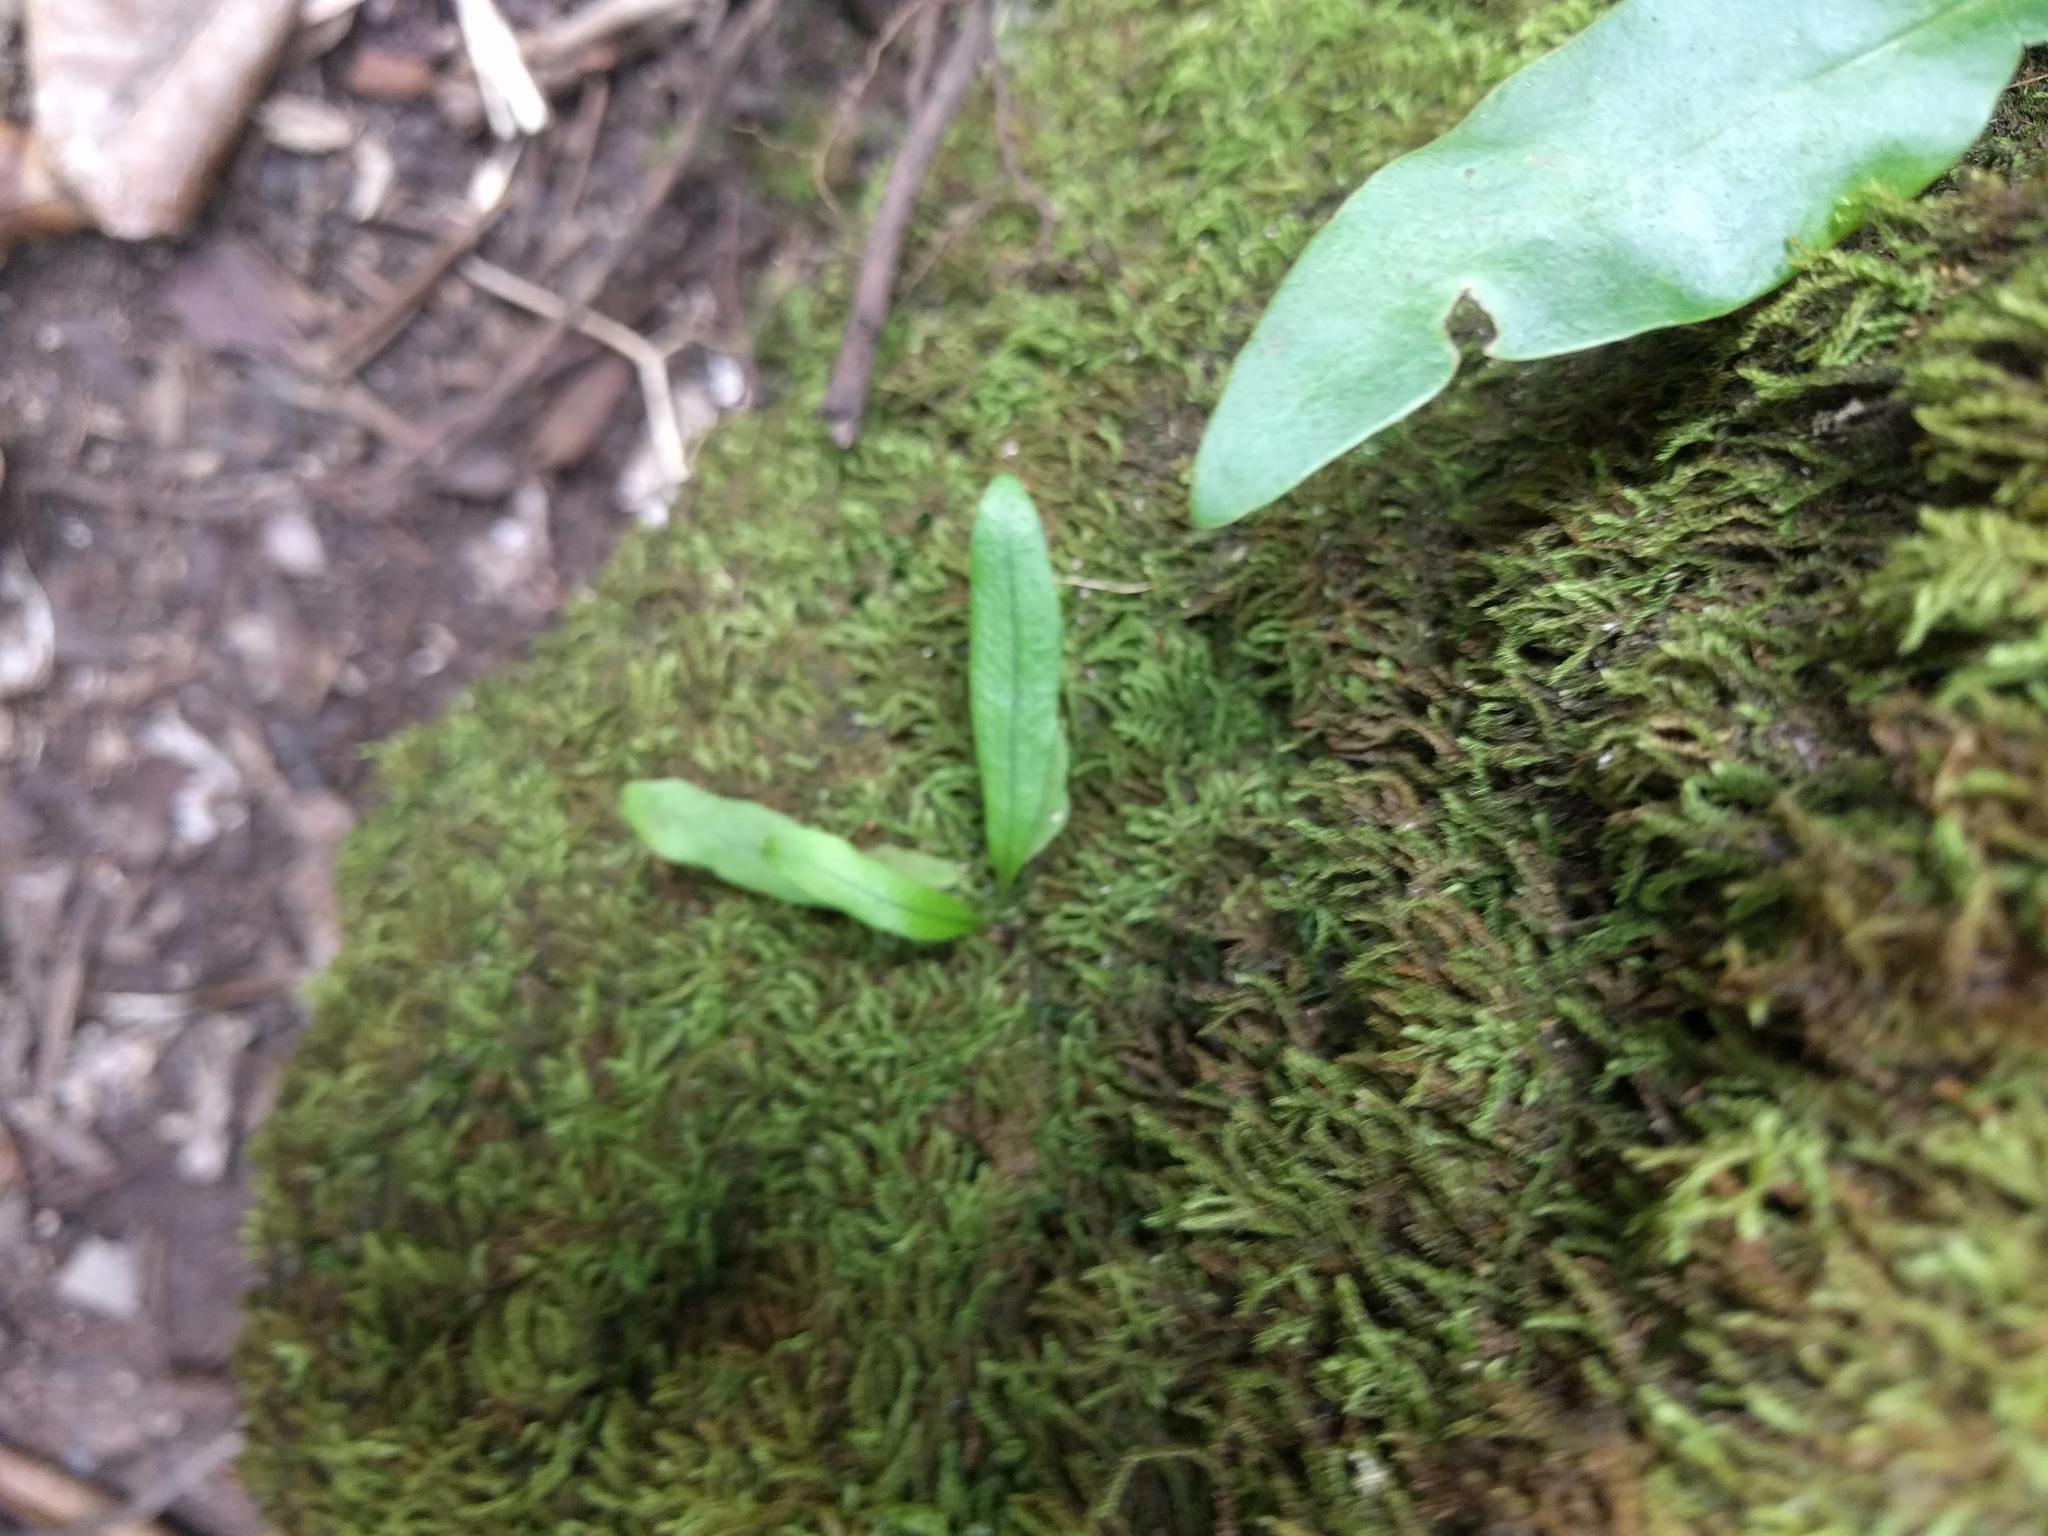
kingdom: Plantae
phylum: Tracheophyta
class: Polypodiopsida
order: Polypodiales
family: Polypodiaceae
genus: Lepisorus
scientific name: Lepisorus thunbergianus
